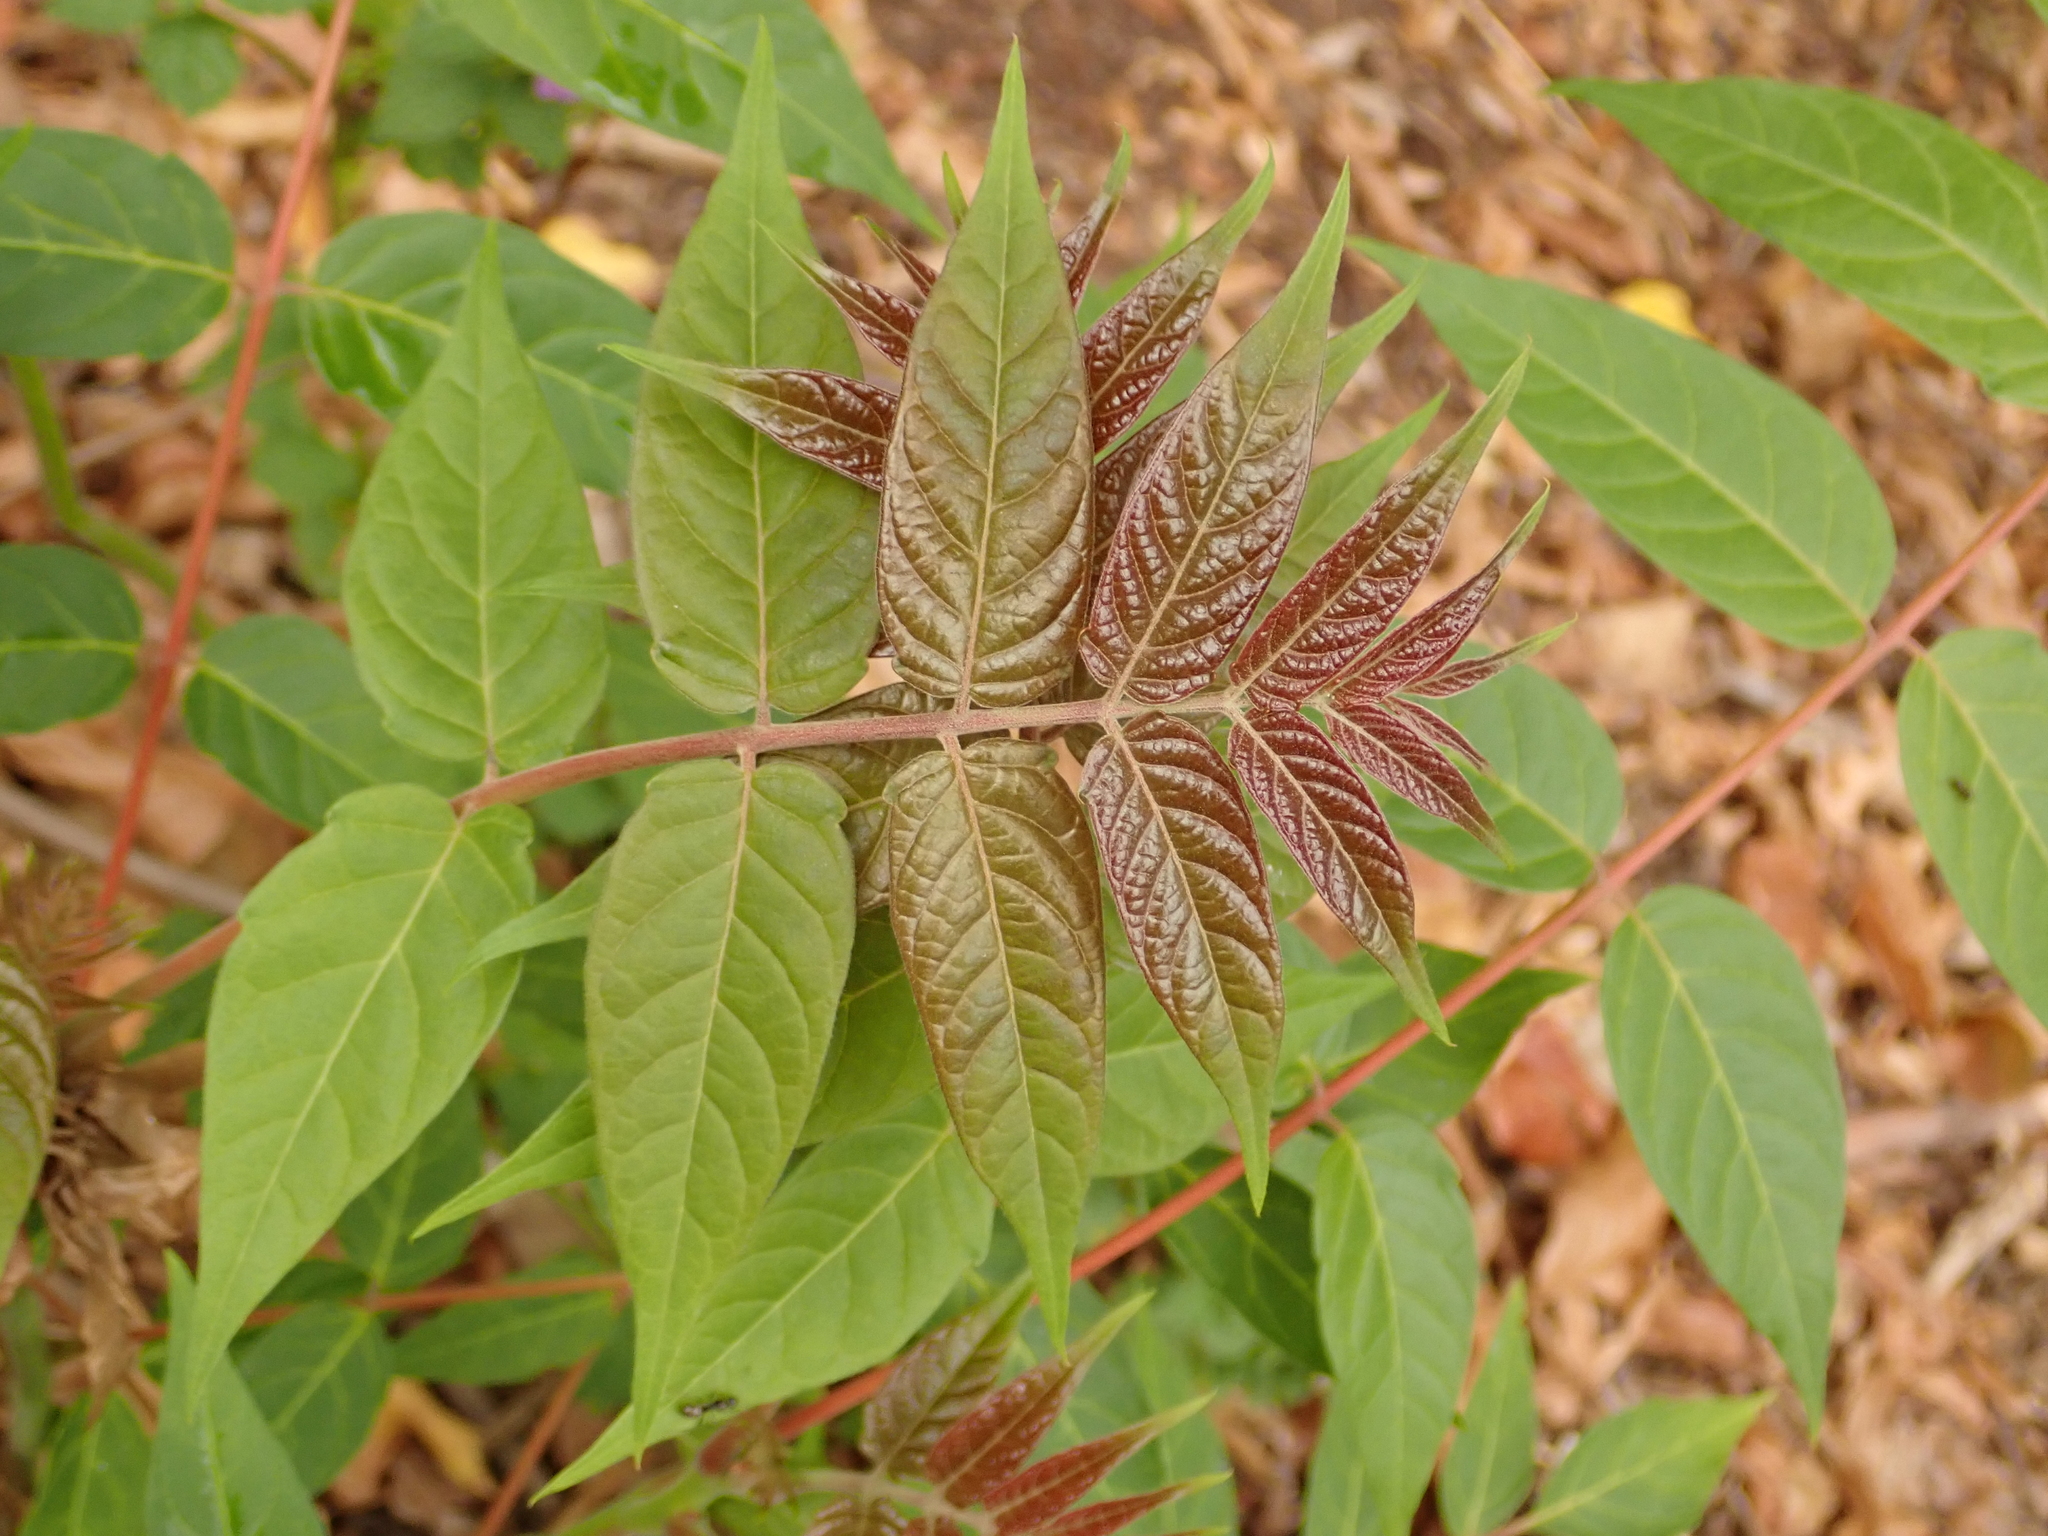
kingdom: Plantae
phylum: Tracheophyta
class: Magnoliopsida
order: Sapindales
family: Simaroubaceae
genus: Ailanthus
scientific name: Ailanthus altissima
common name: Tree-of-heaven
